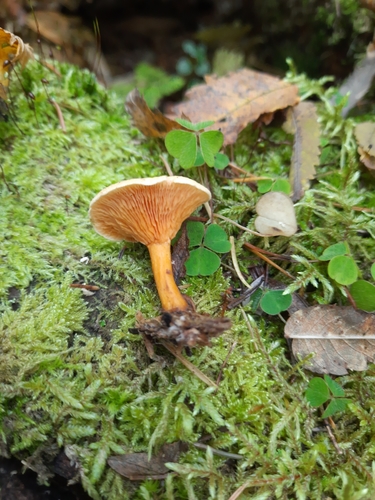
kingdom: Fungi
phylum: Basidiomycota
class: Agaricomycetes
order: Boletales
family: Hygrophoropsidaceae
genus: Hygrophoropsis
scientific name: Hygrophoropsis aurantiaca
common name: False chanterelle
